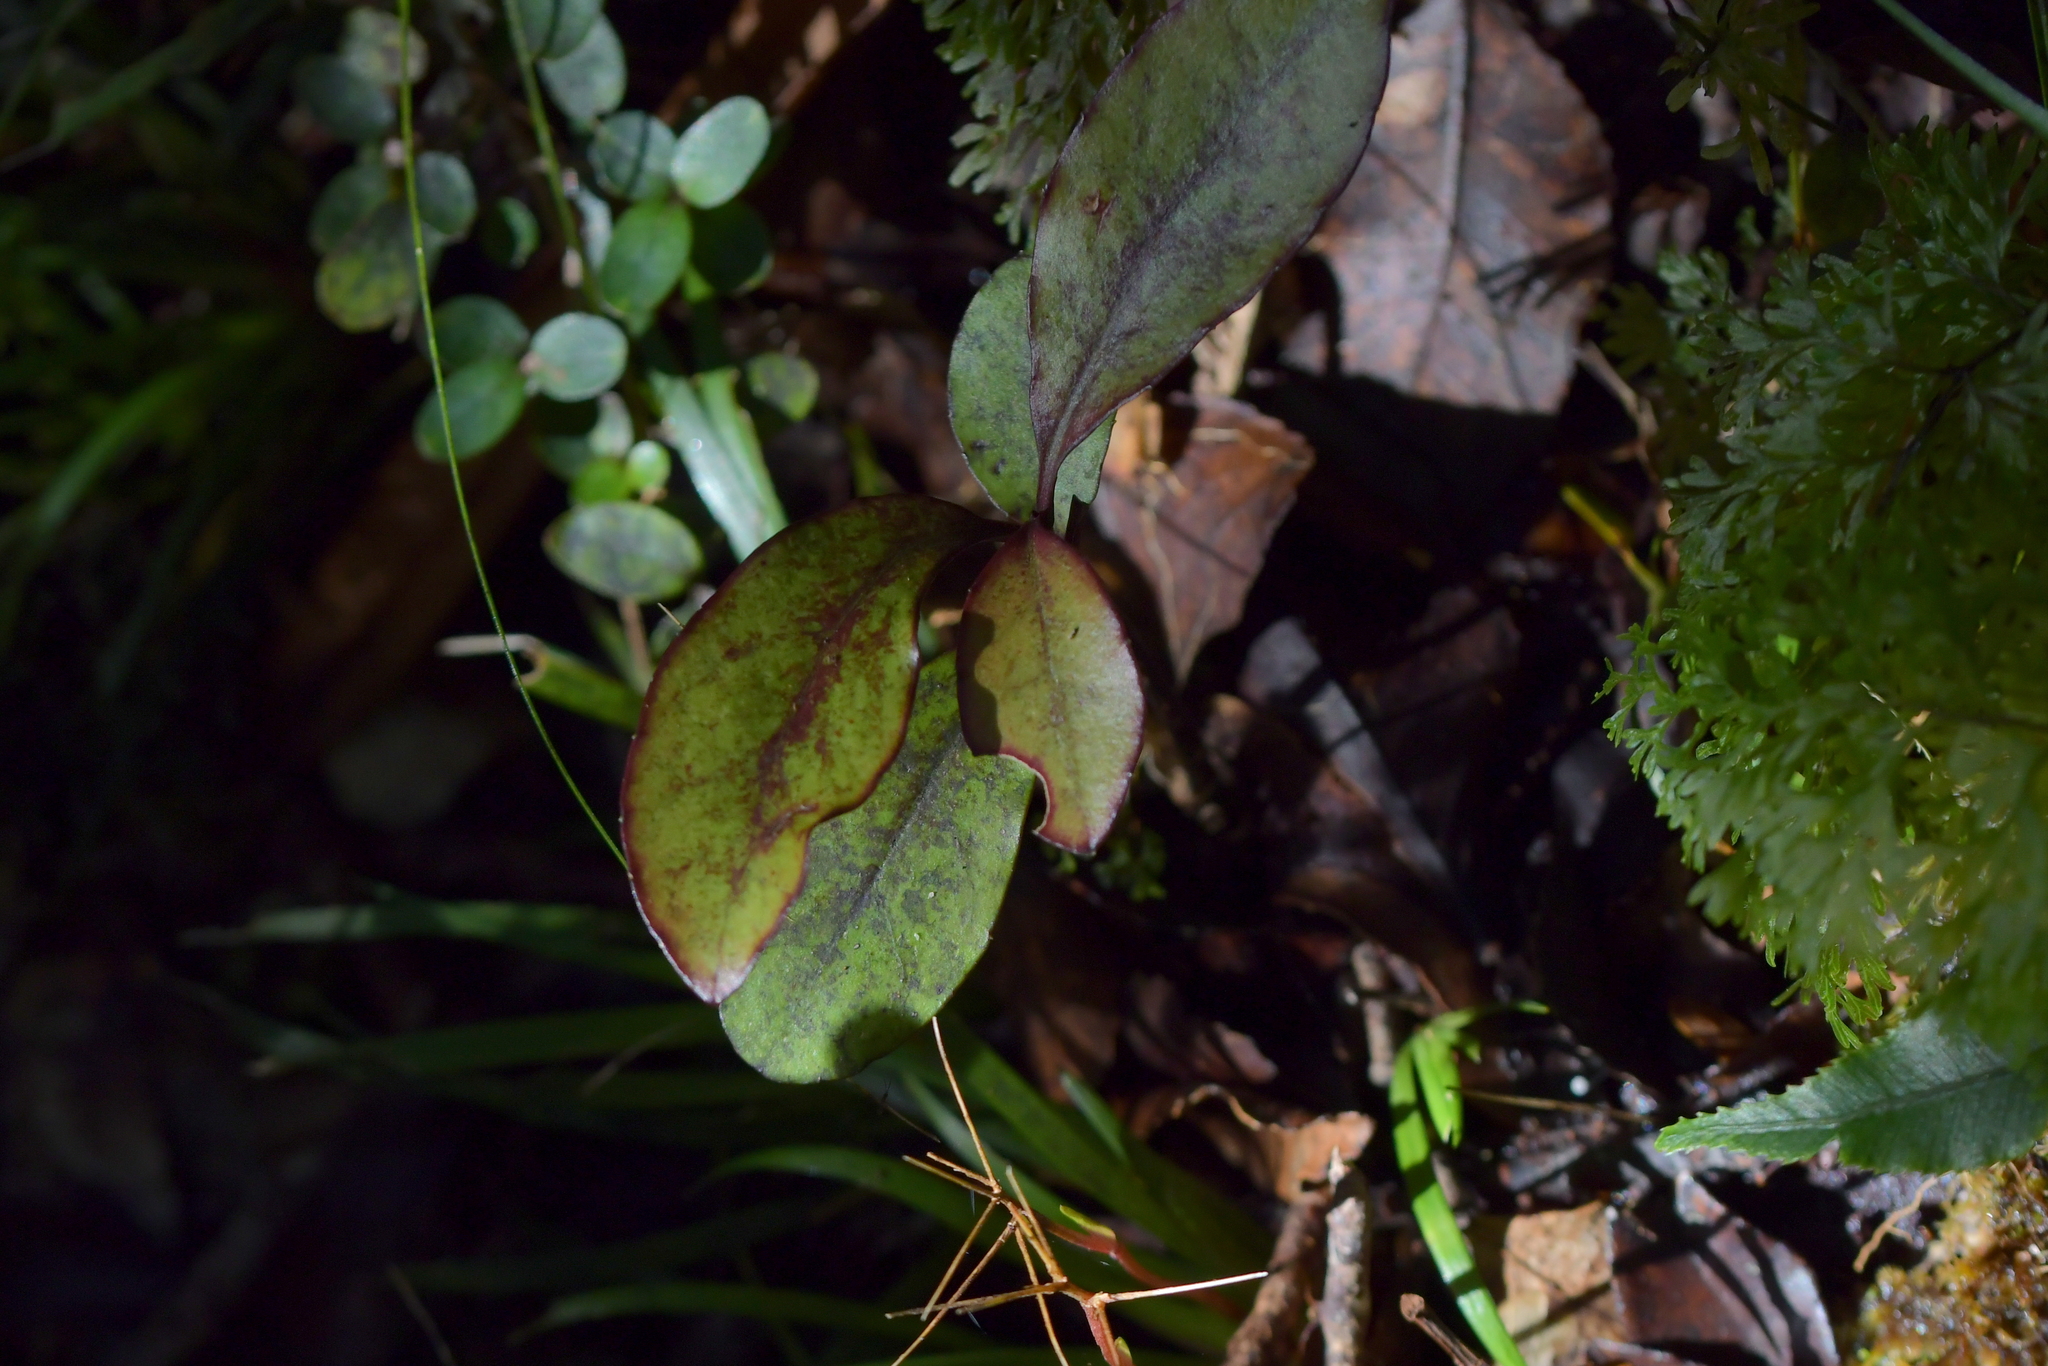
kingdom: Plantae
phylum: Tracheophyta
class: Magnoliopsida
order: Canellales
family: Winteraceae
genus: Pseudowintera
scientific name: Pseudowintera colorata
